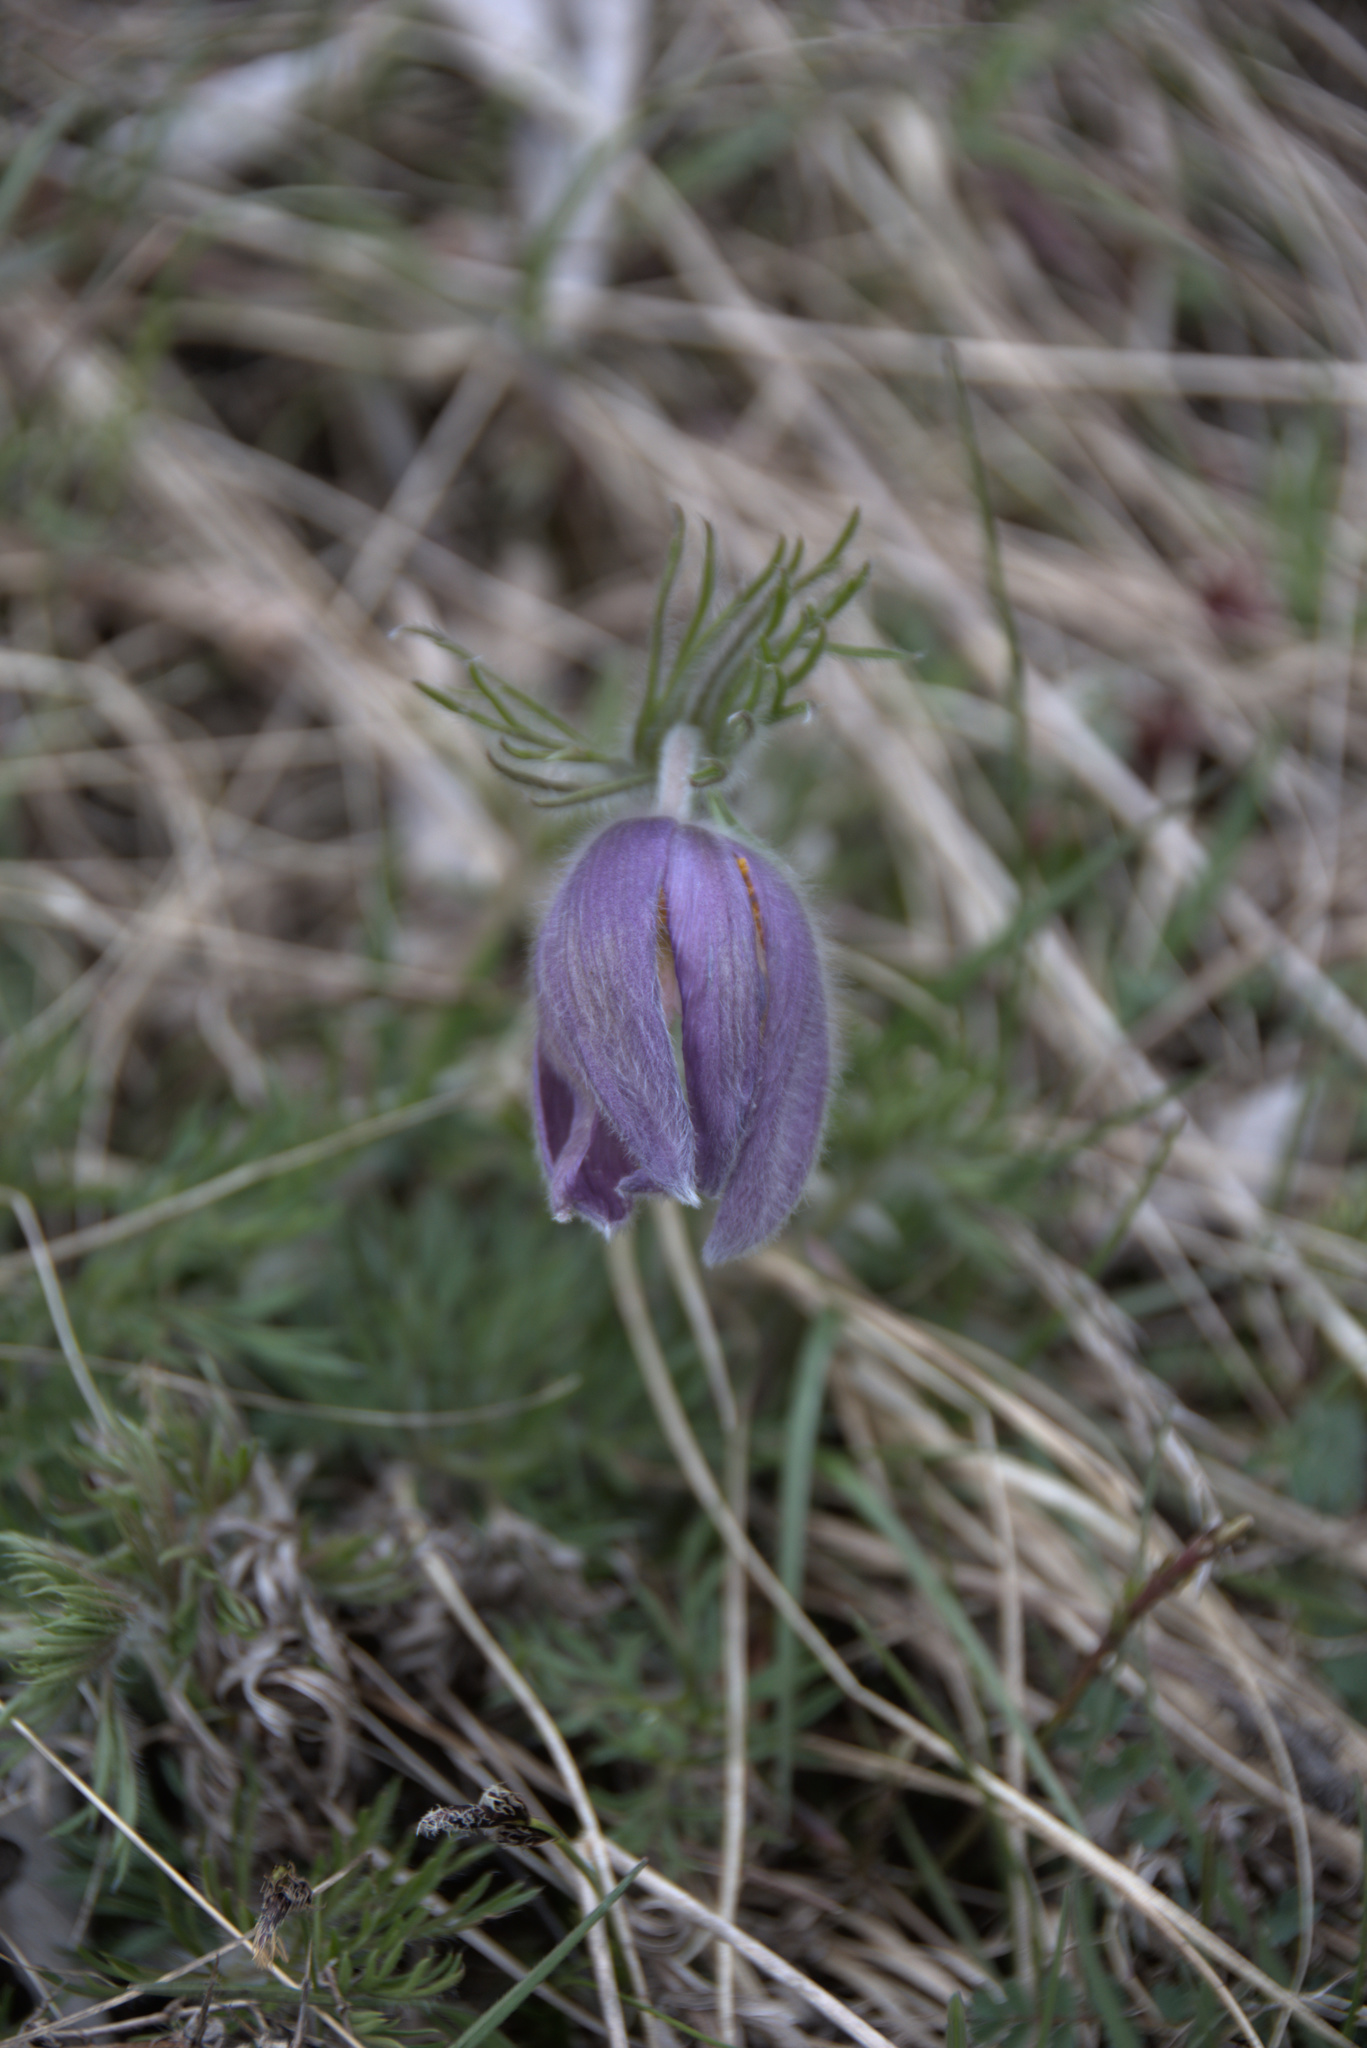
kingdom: Plantae
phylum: Tracheophyta
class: Magnoliopsida
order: Ranunculales
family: Ranunculaceae
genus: Pulsatilla
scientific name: Pulsatilla vulgaris
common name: Pasqueflower
